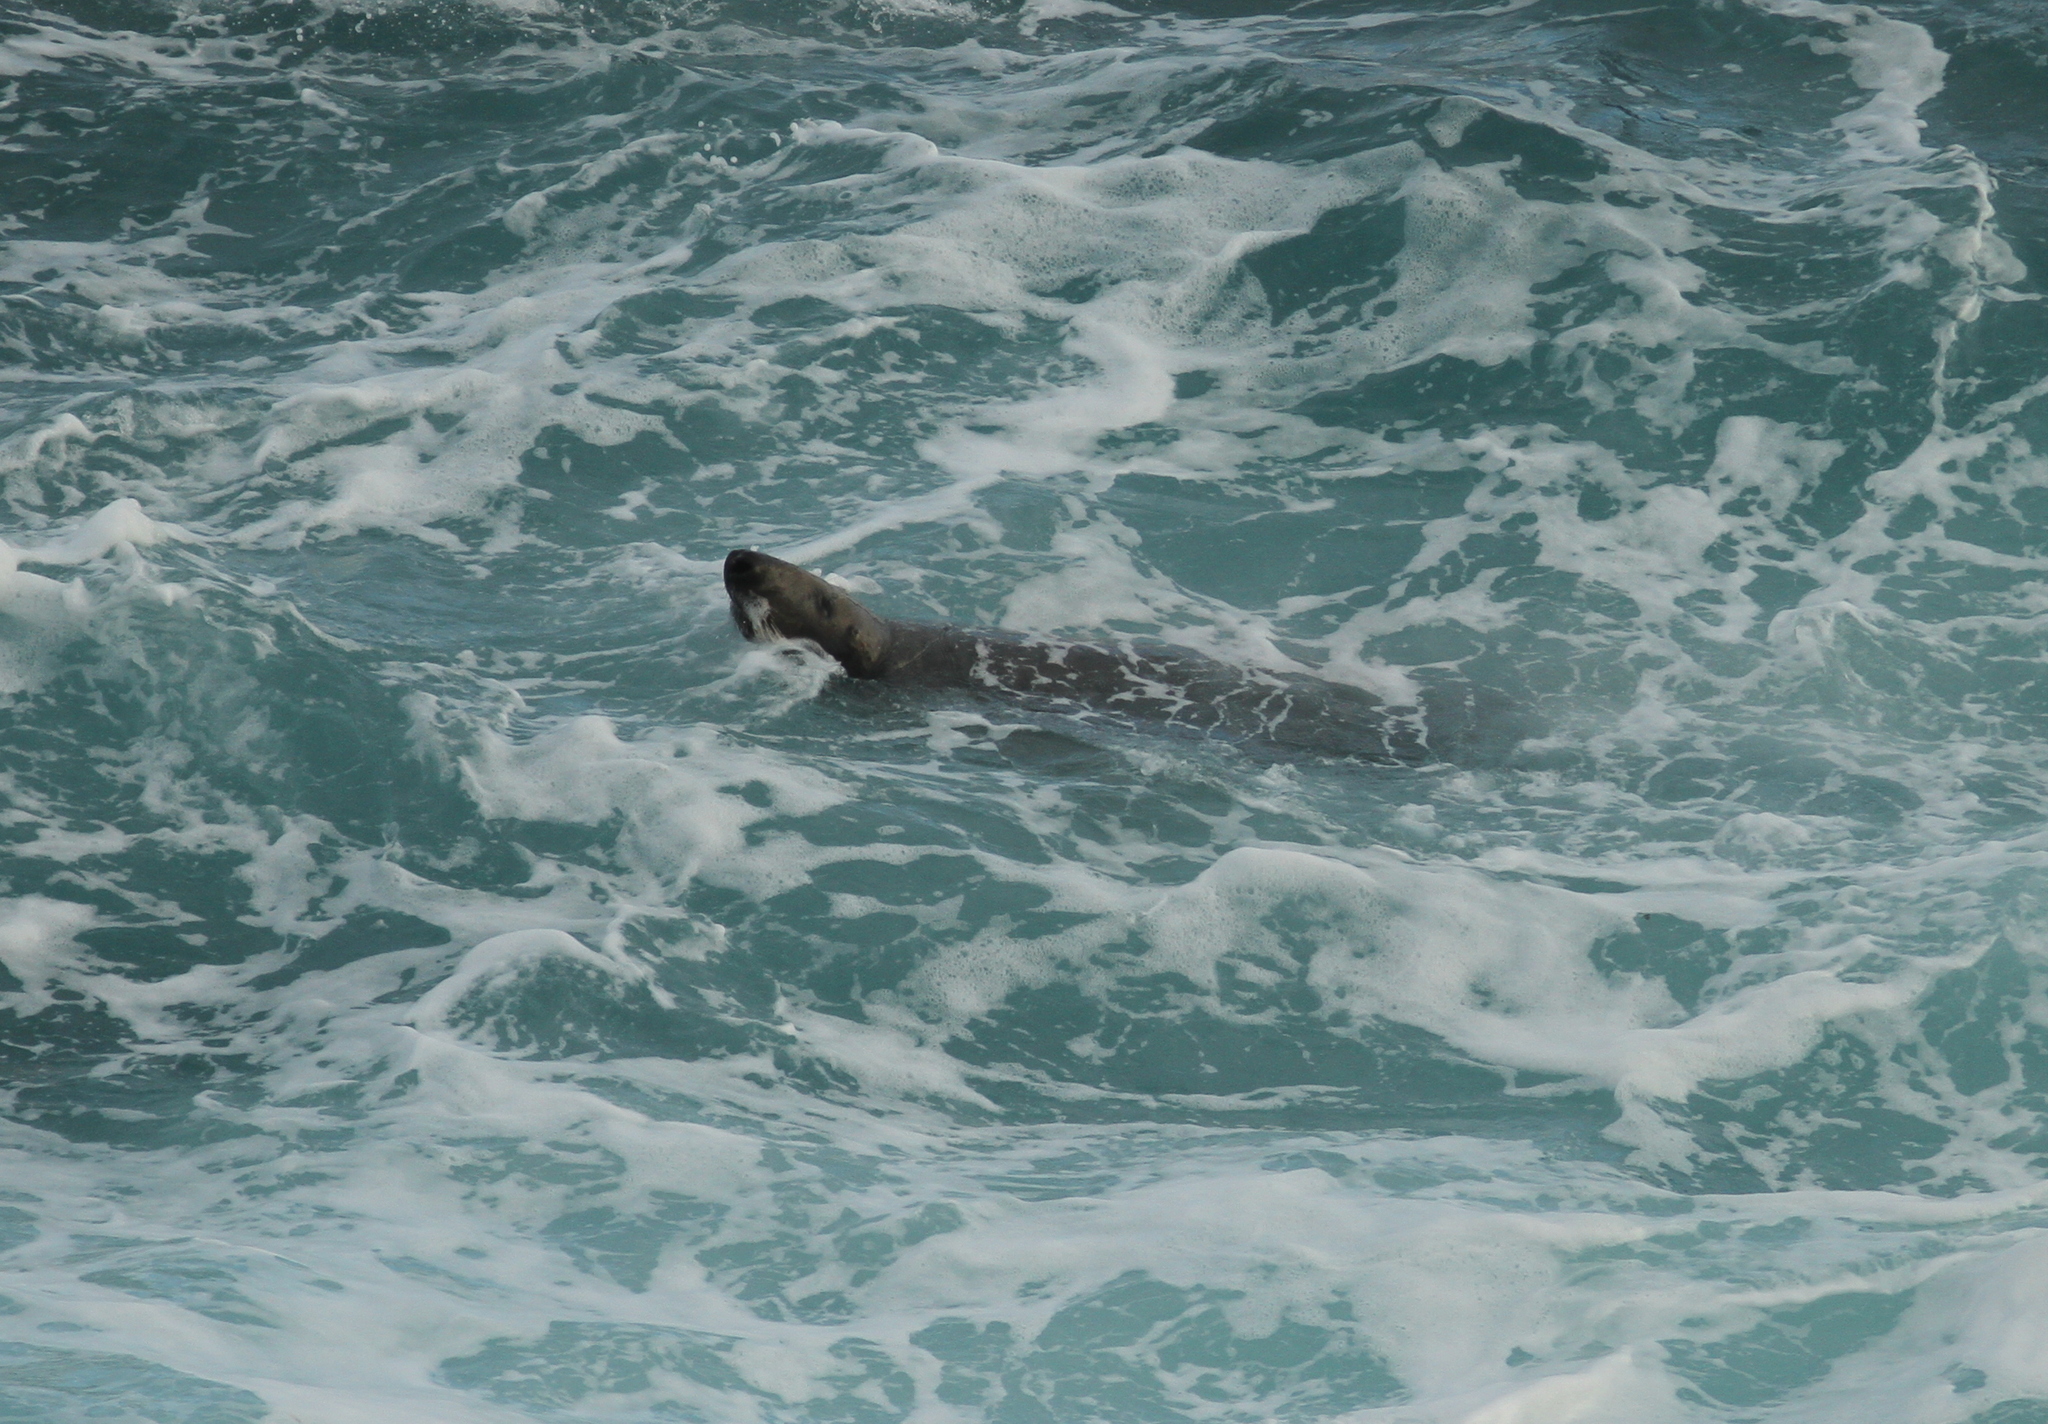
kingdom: Animalia
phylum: Chordata
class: Mammalia
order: Carnivora
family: Phocidae
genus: Halichoerus
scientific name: Halichoerus grypus
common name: Grey seal
